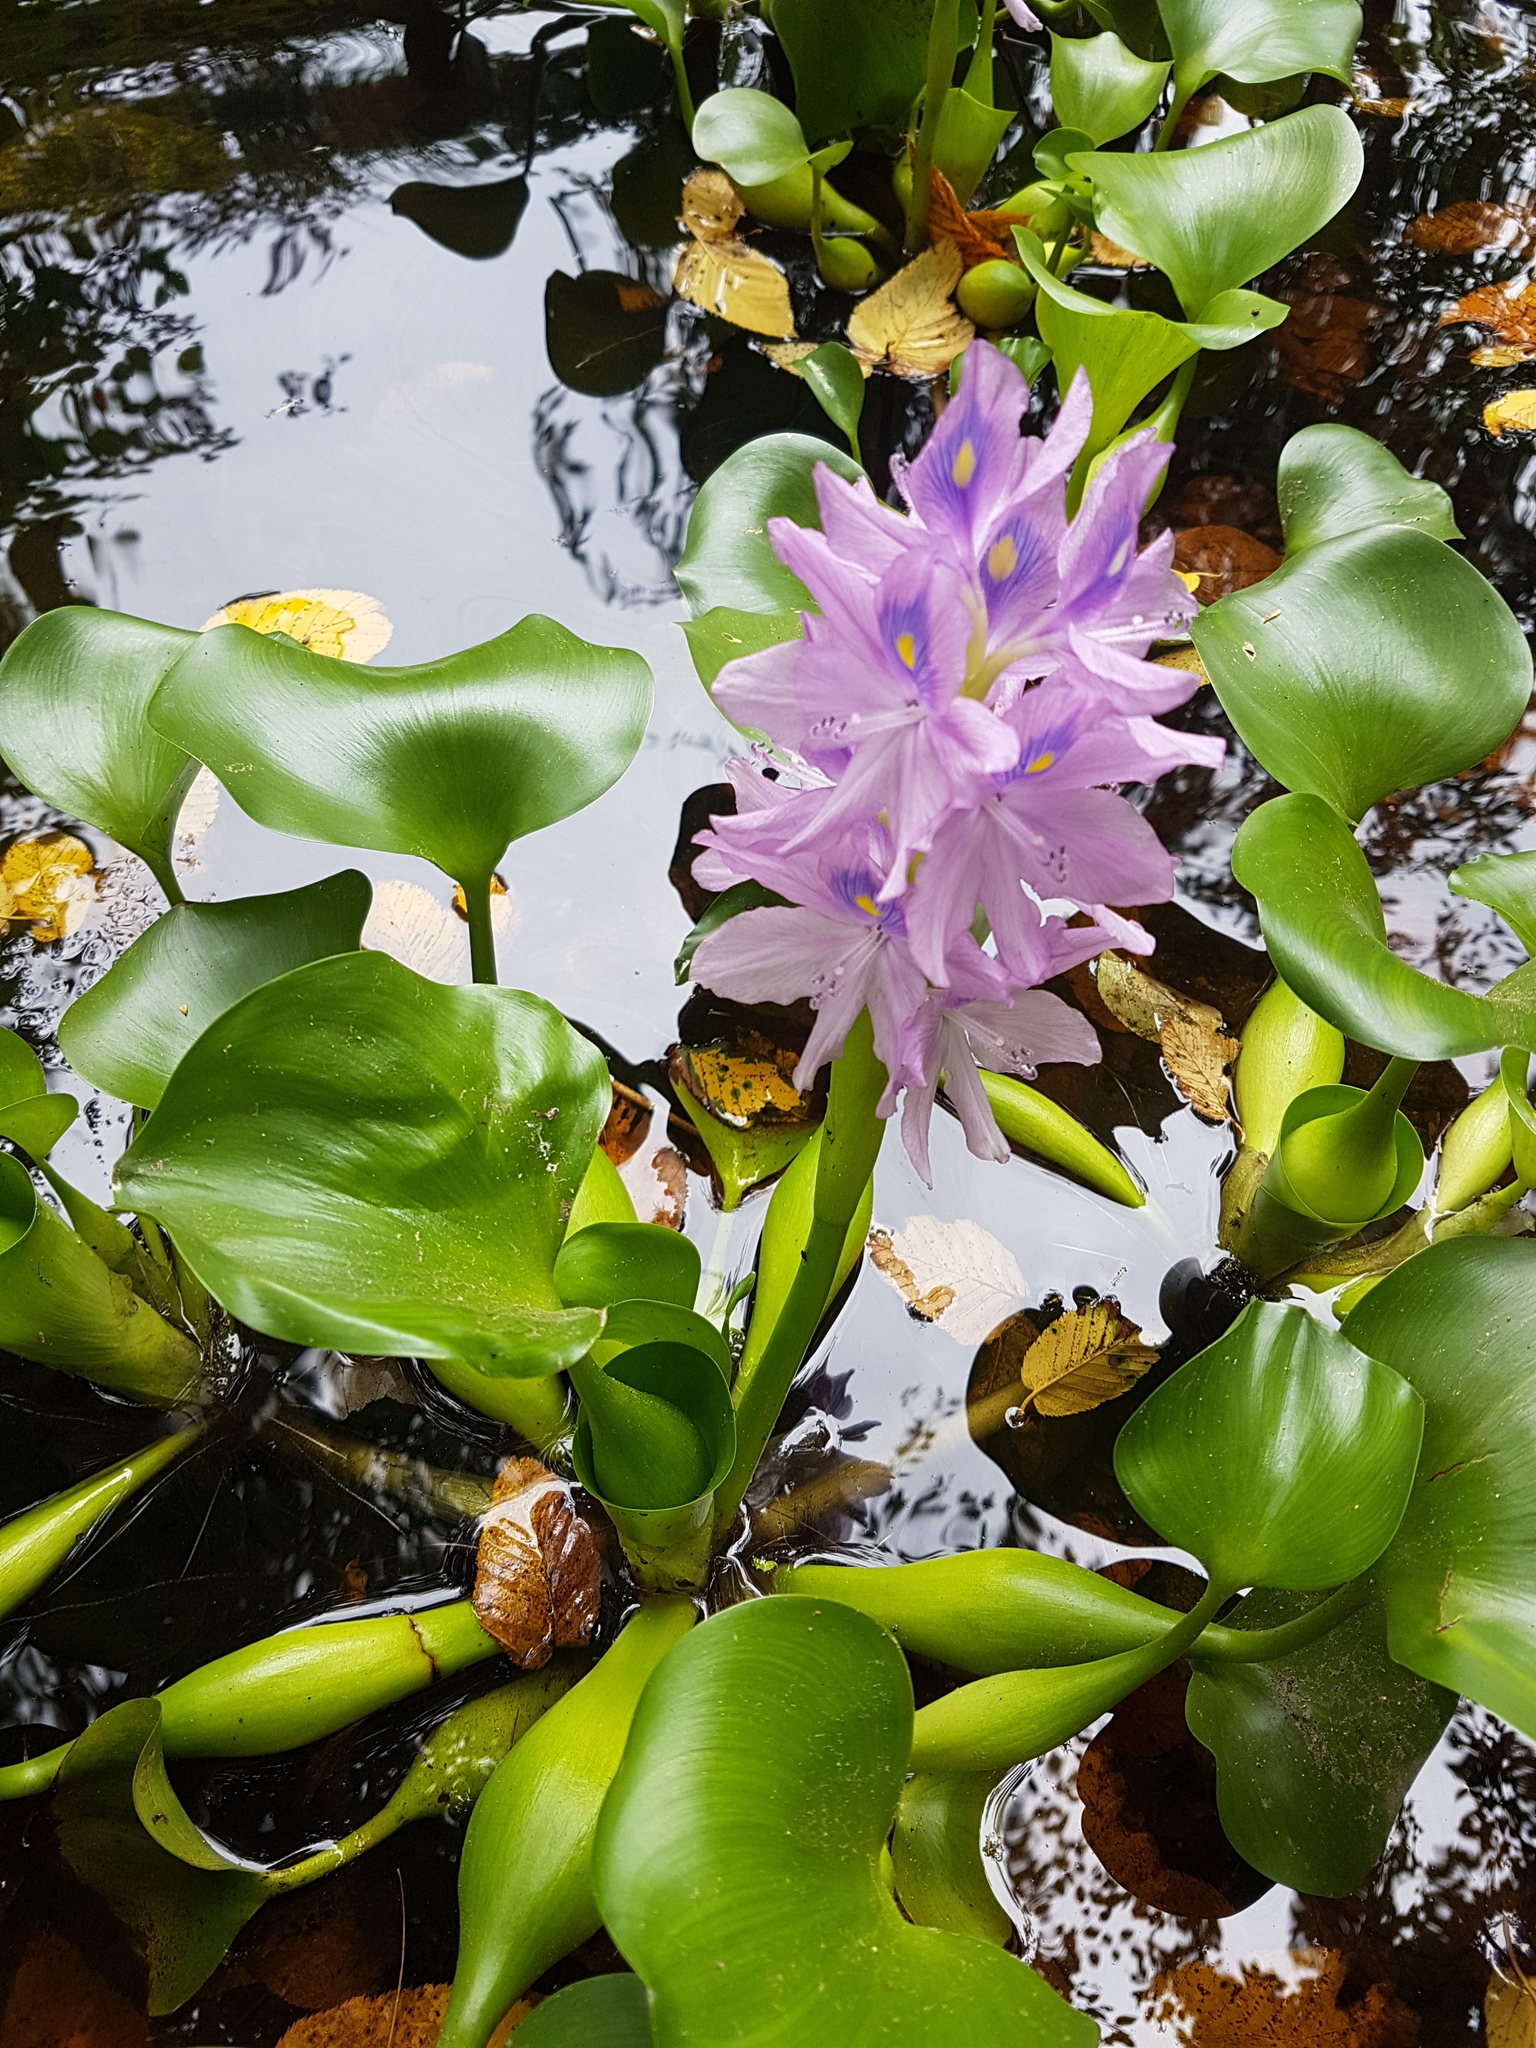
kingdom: Plantae
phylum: Tracheophyta
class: Liliopsida
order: Commelinales
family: Pontederiaceae
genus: Pontederia
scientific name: Pontederia crassipes
